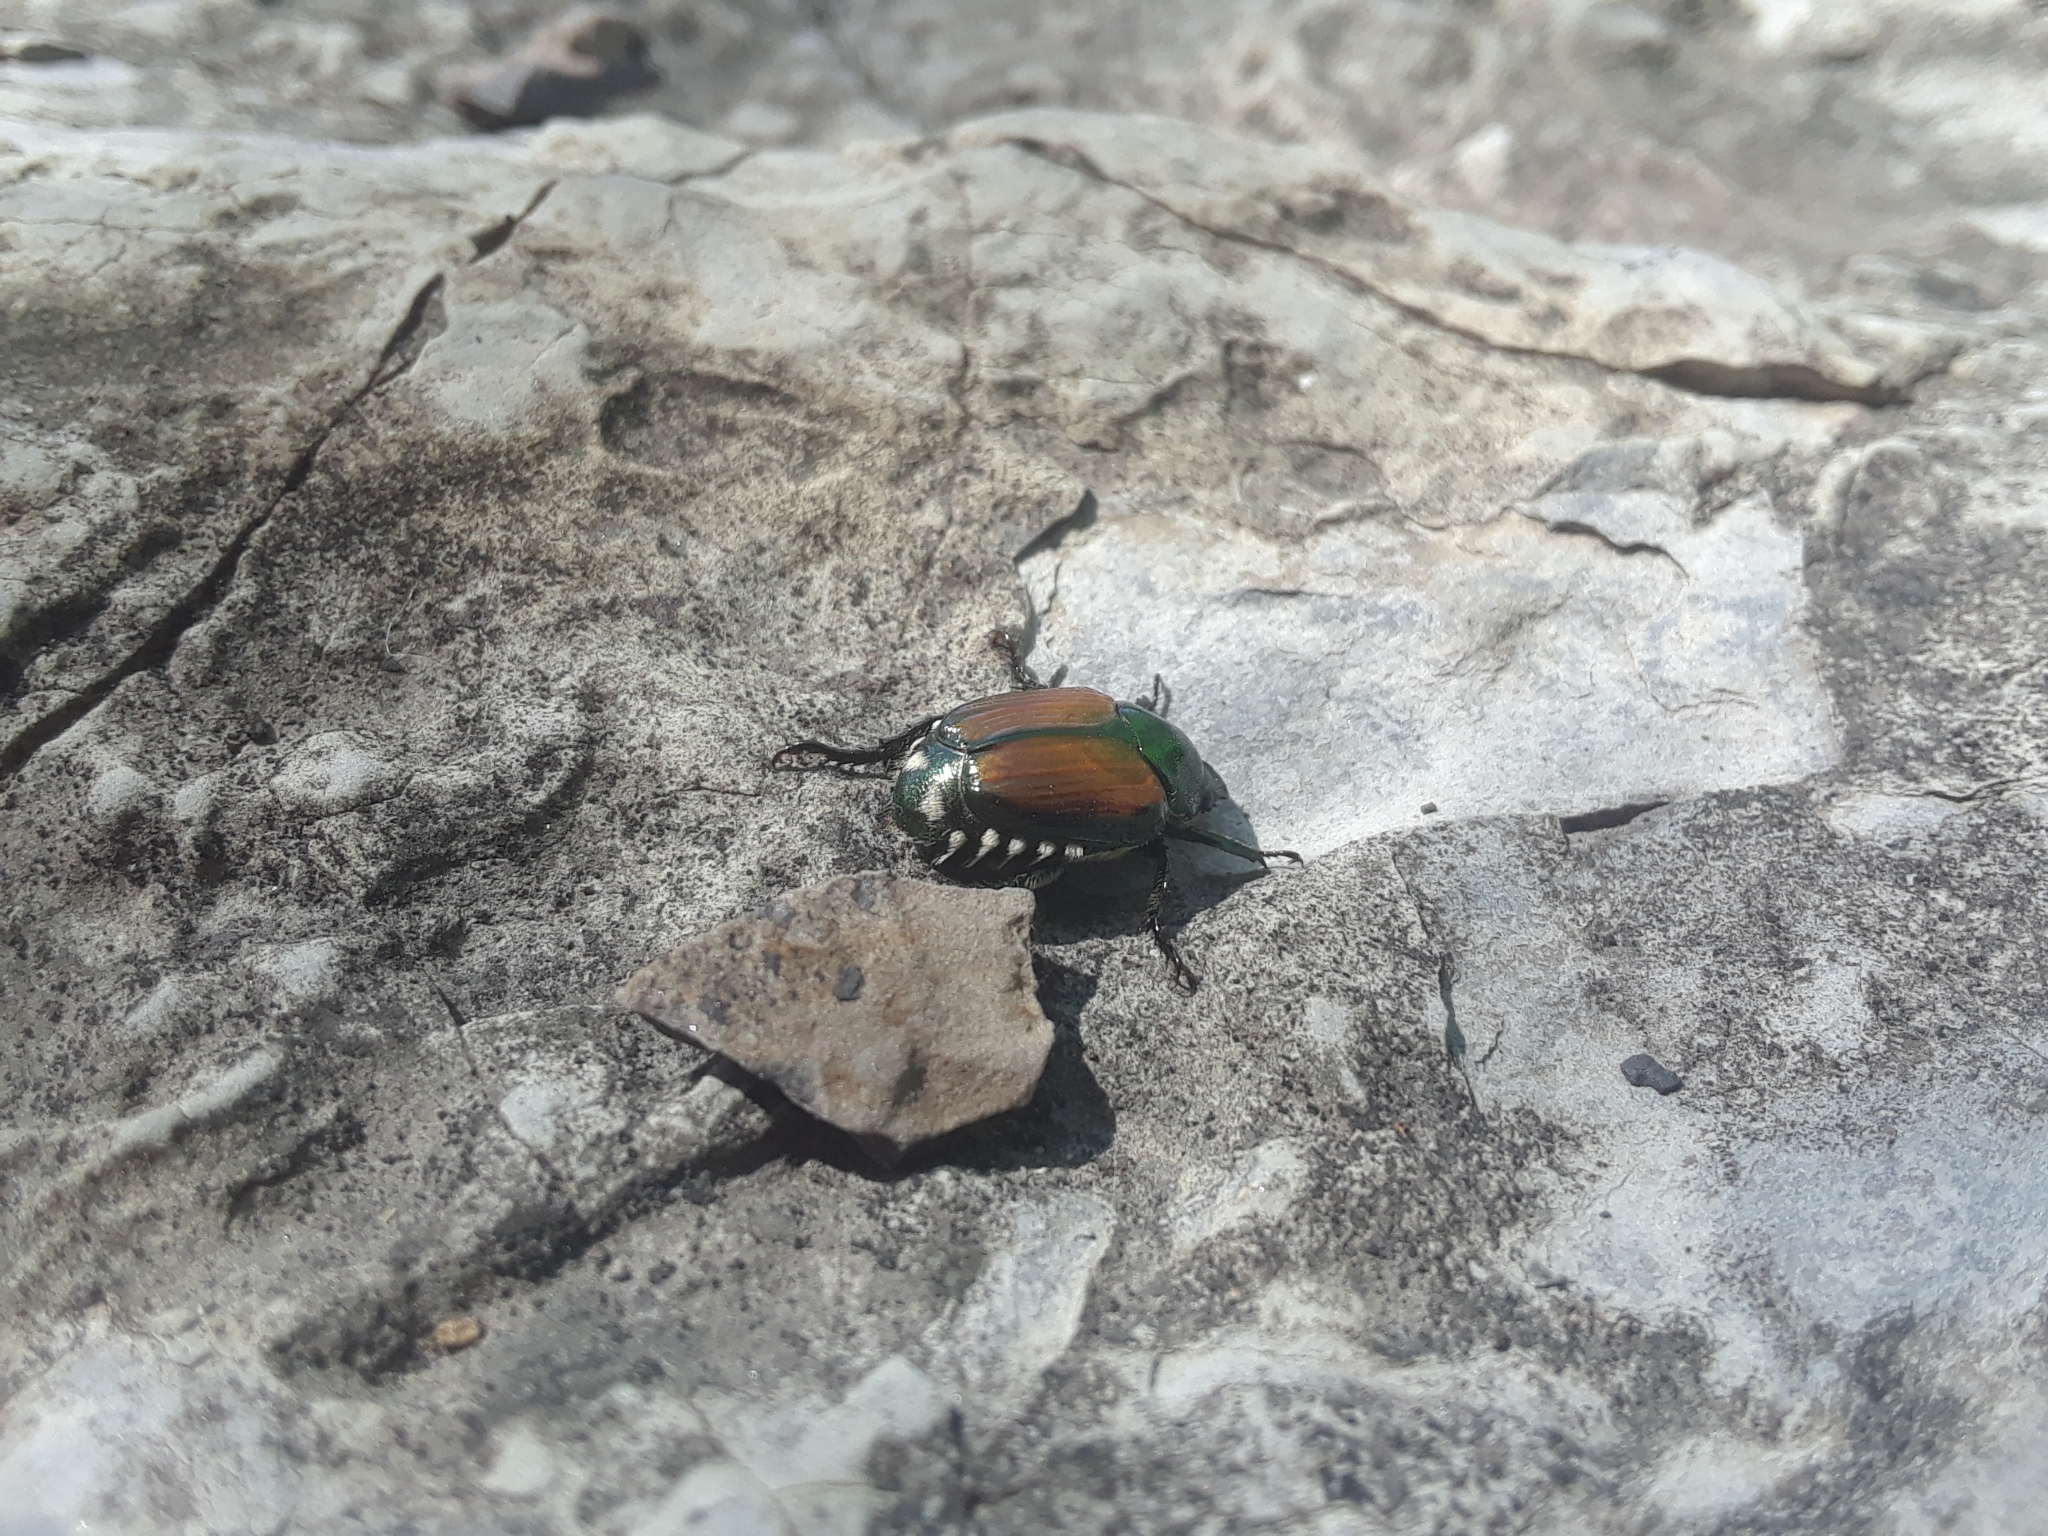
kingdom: Animalia
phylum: Arthropoda
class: Insecta
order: Coleoptera
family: Scarabaeidae
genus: Popillia
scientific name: Popillia japonica
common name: Japanese beetle
